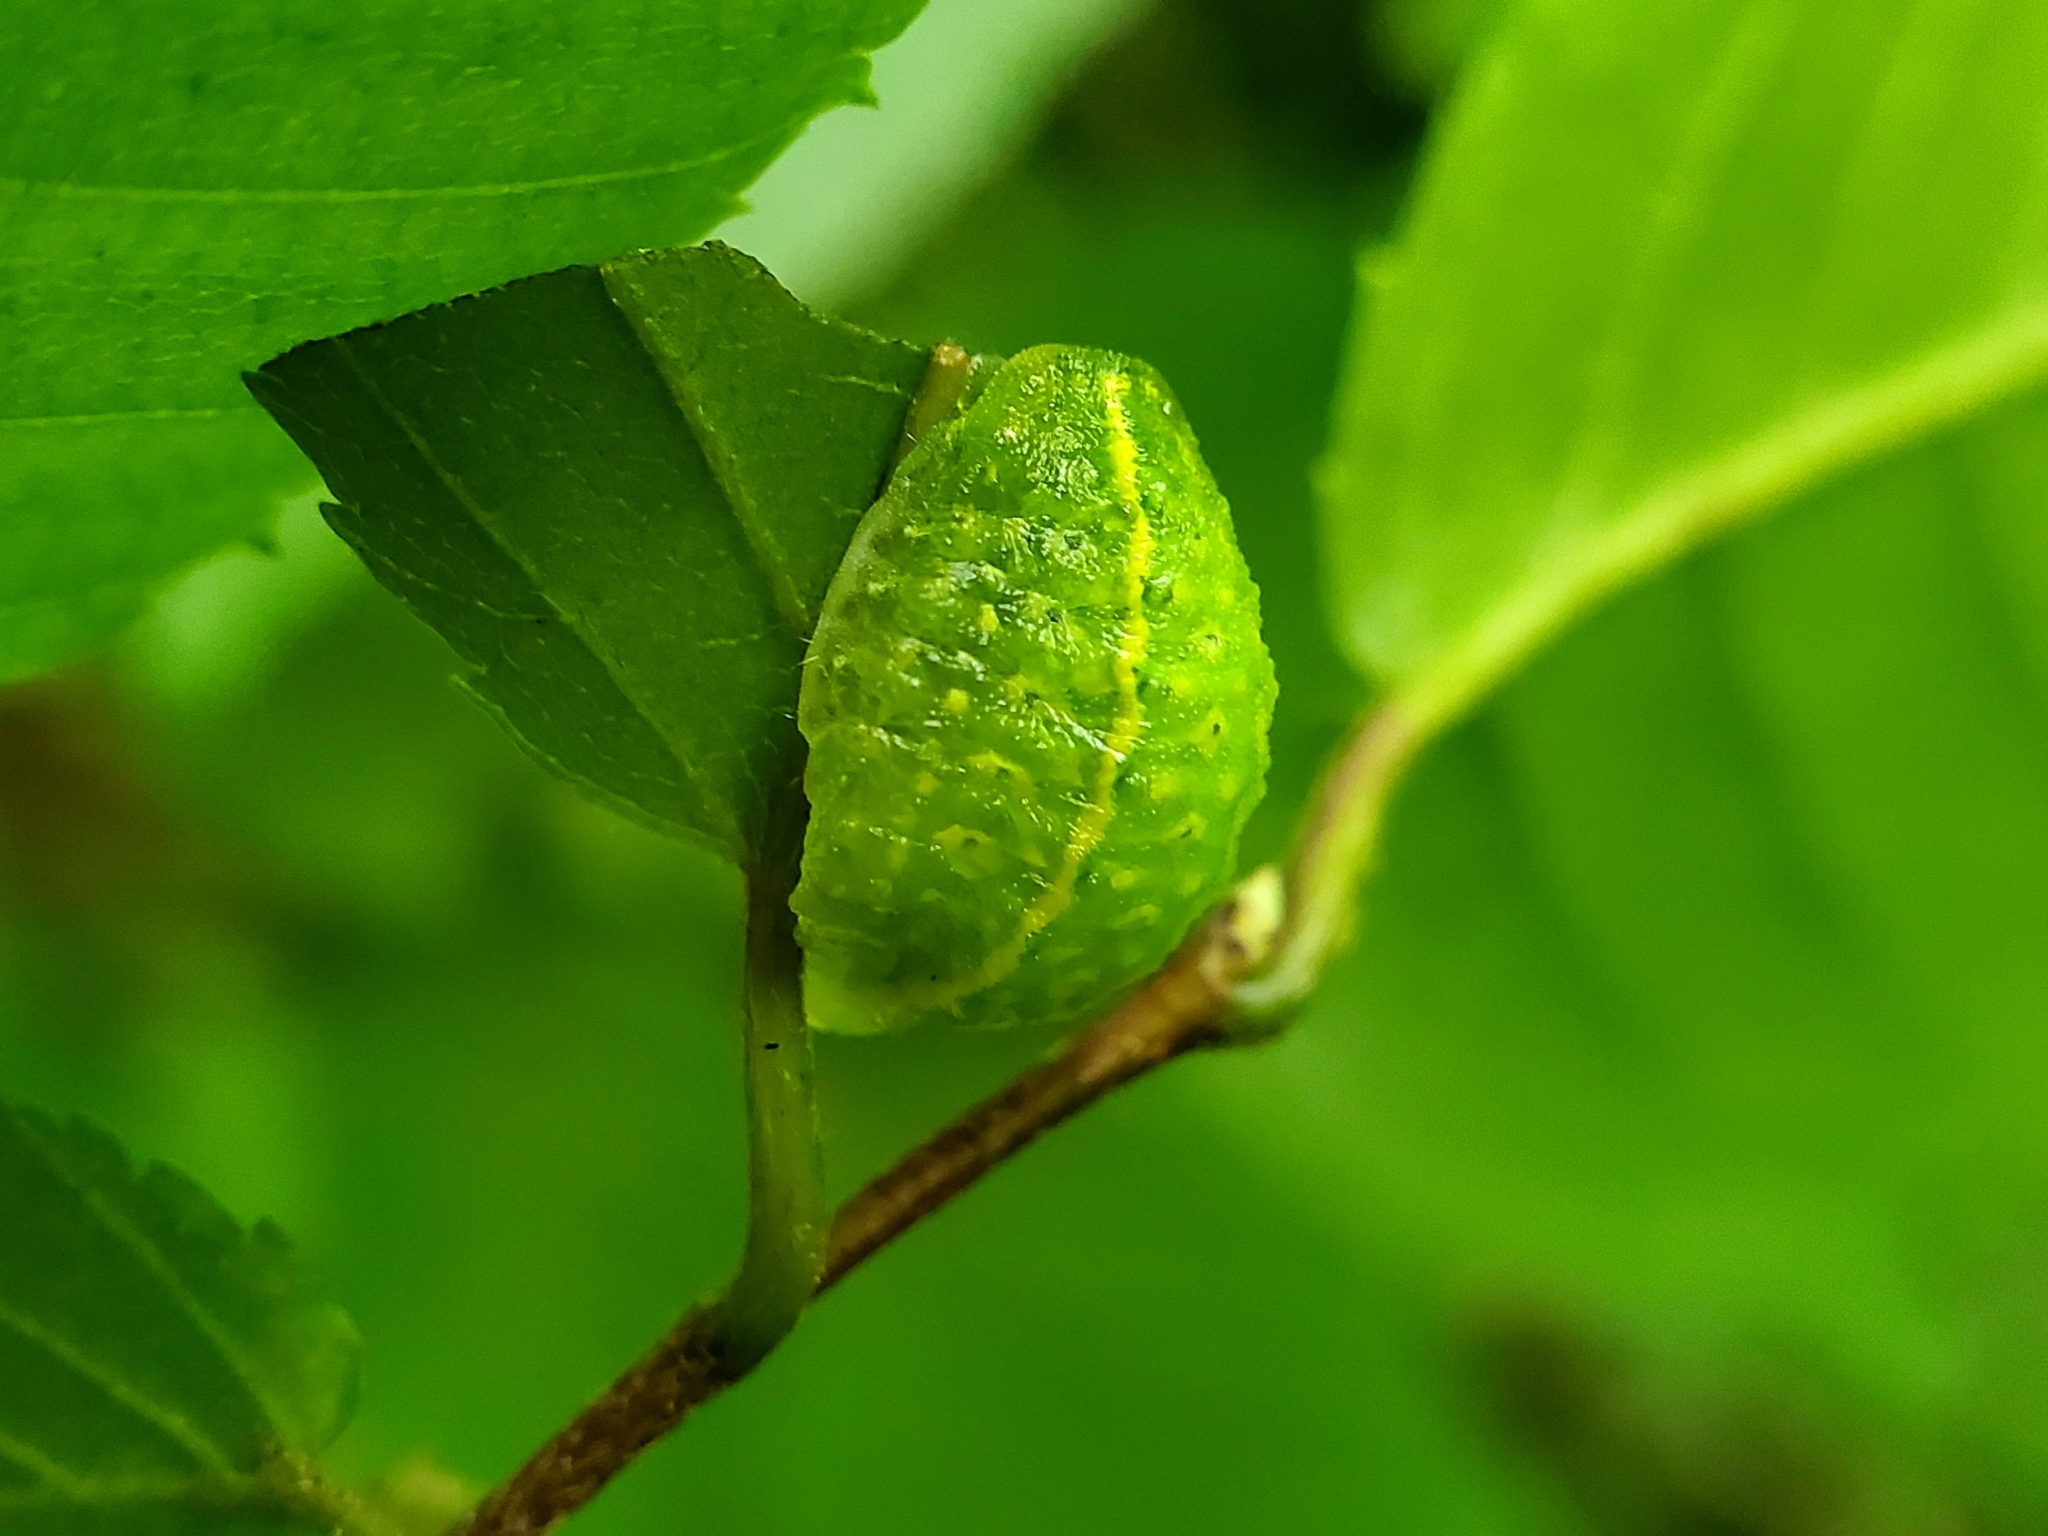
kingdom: Animalia
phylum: Arthropoda
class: Insecta
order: Lepidoptera
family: Limacodidae
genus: Lithacodes
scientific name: Lithacodes fasciola
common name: Yellow-shouldered slug moth
